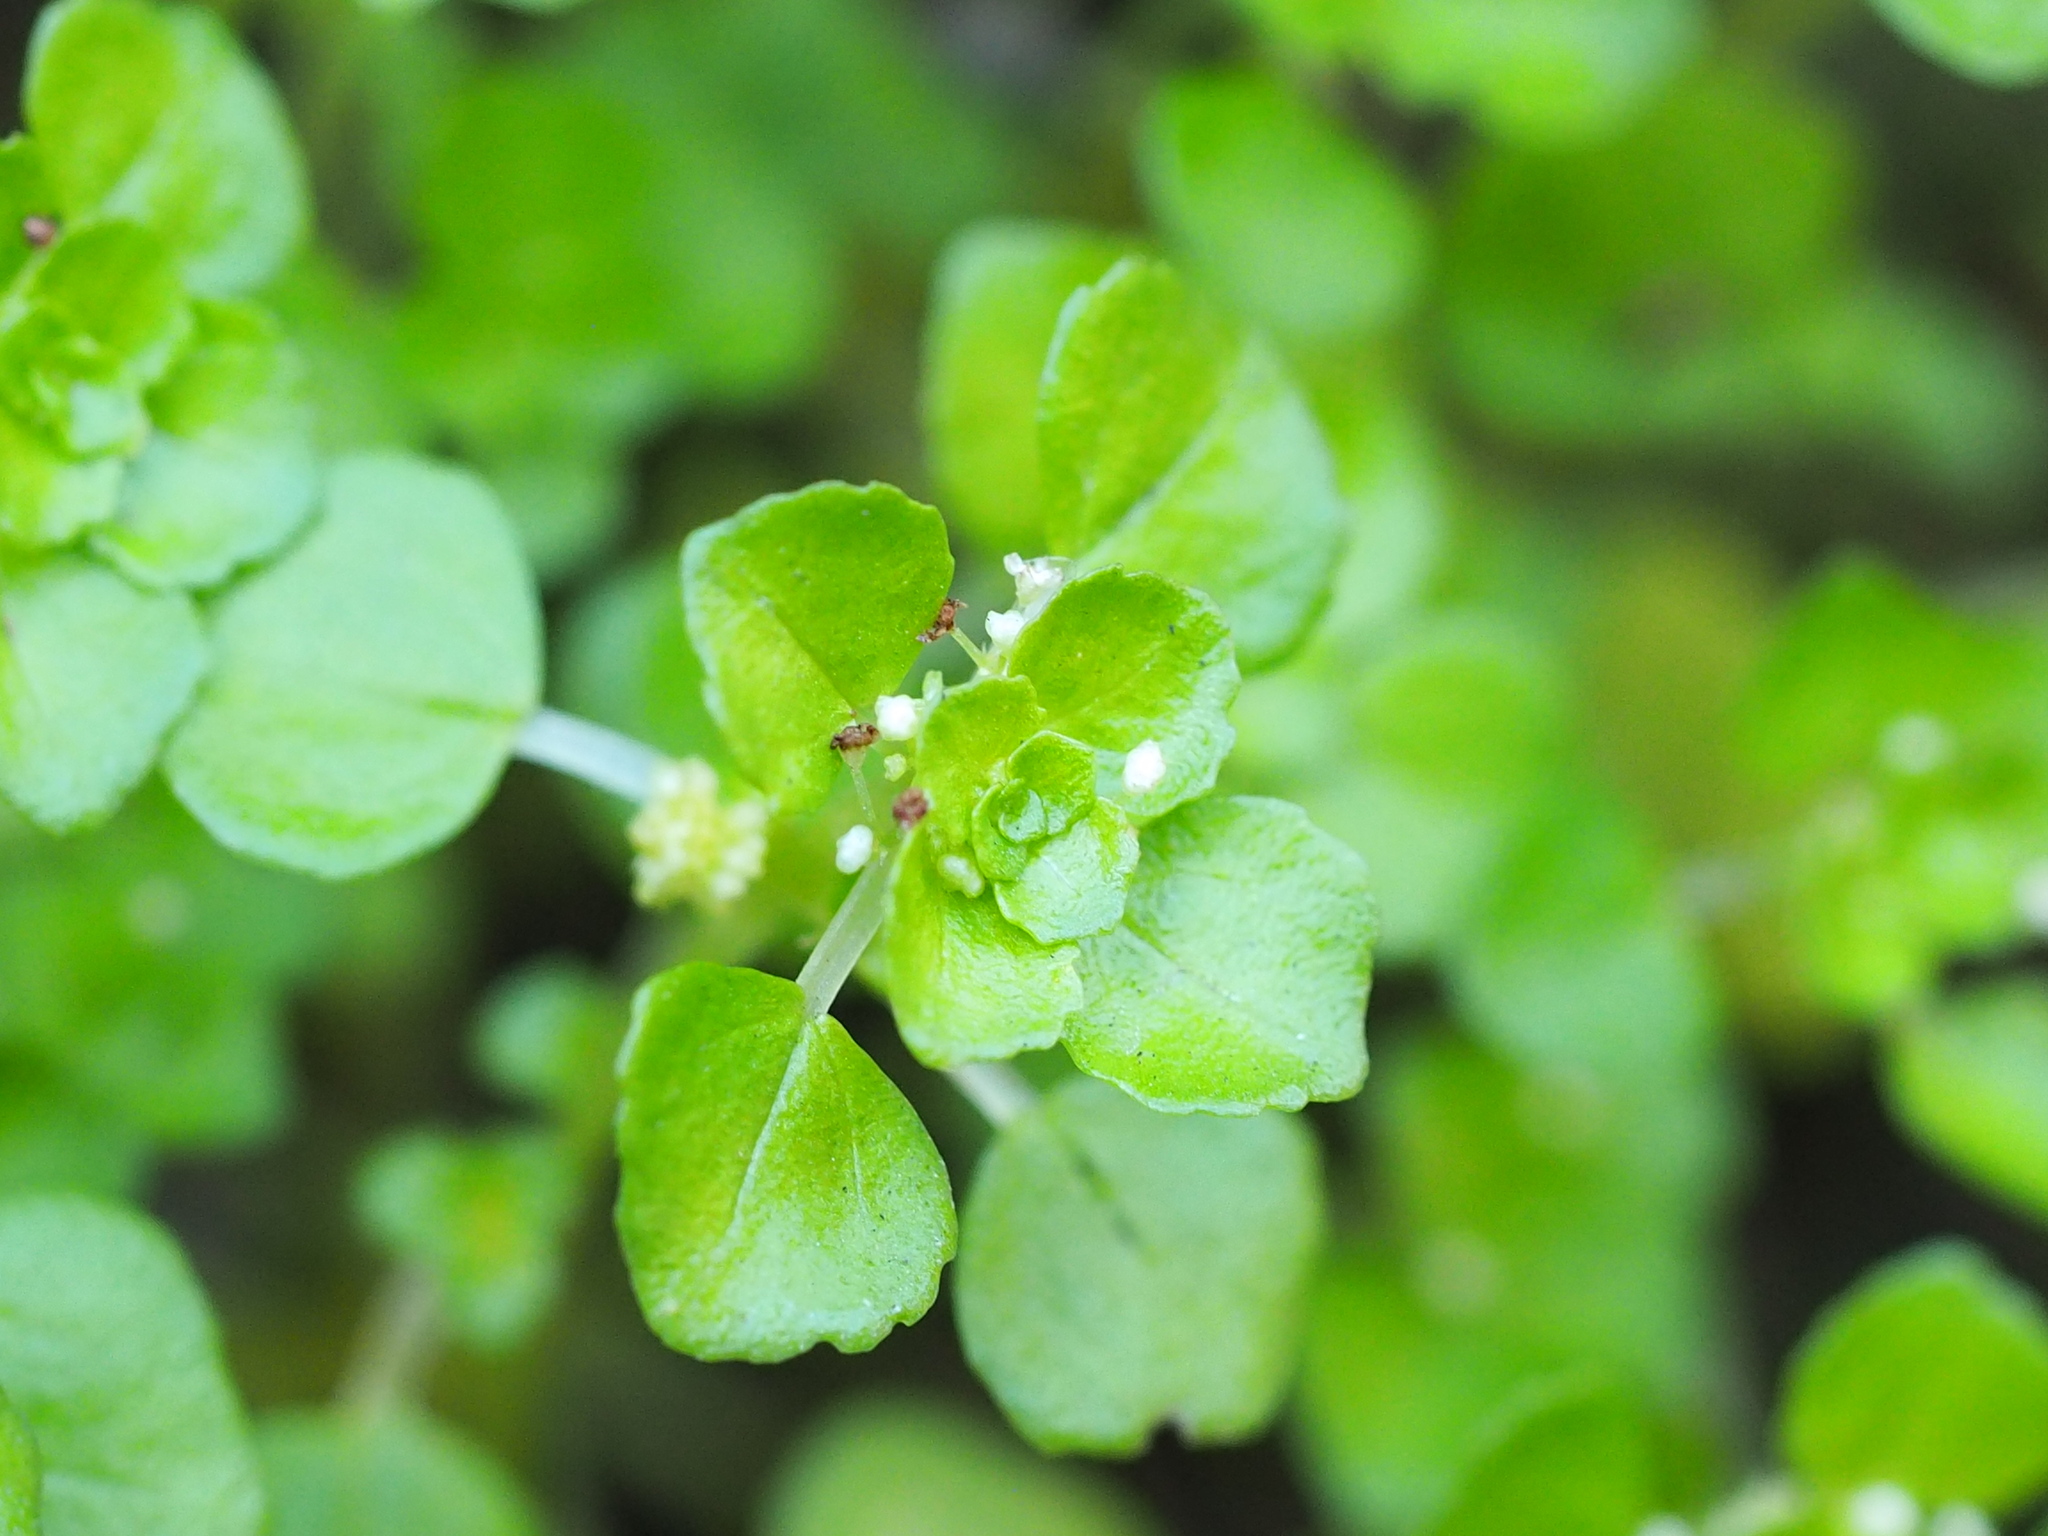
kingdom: Plantae
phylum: Tracheophyta
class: Magnoliopsida
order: Rosales
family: Urticaceae
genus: Pilea
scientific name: Pilea peploides
